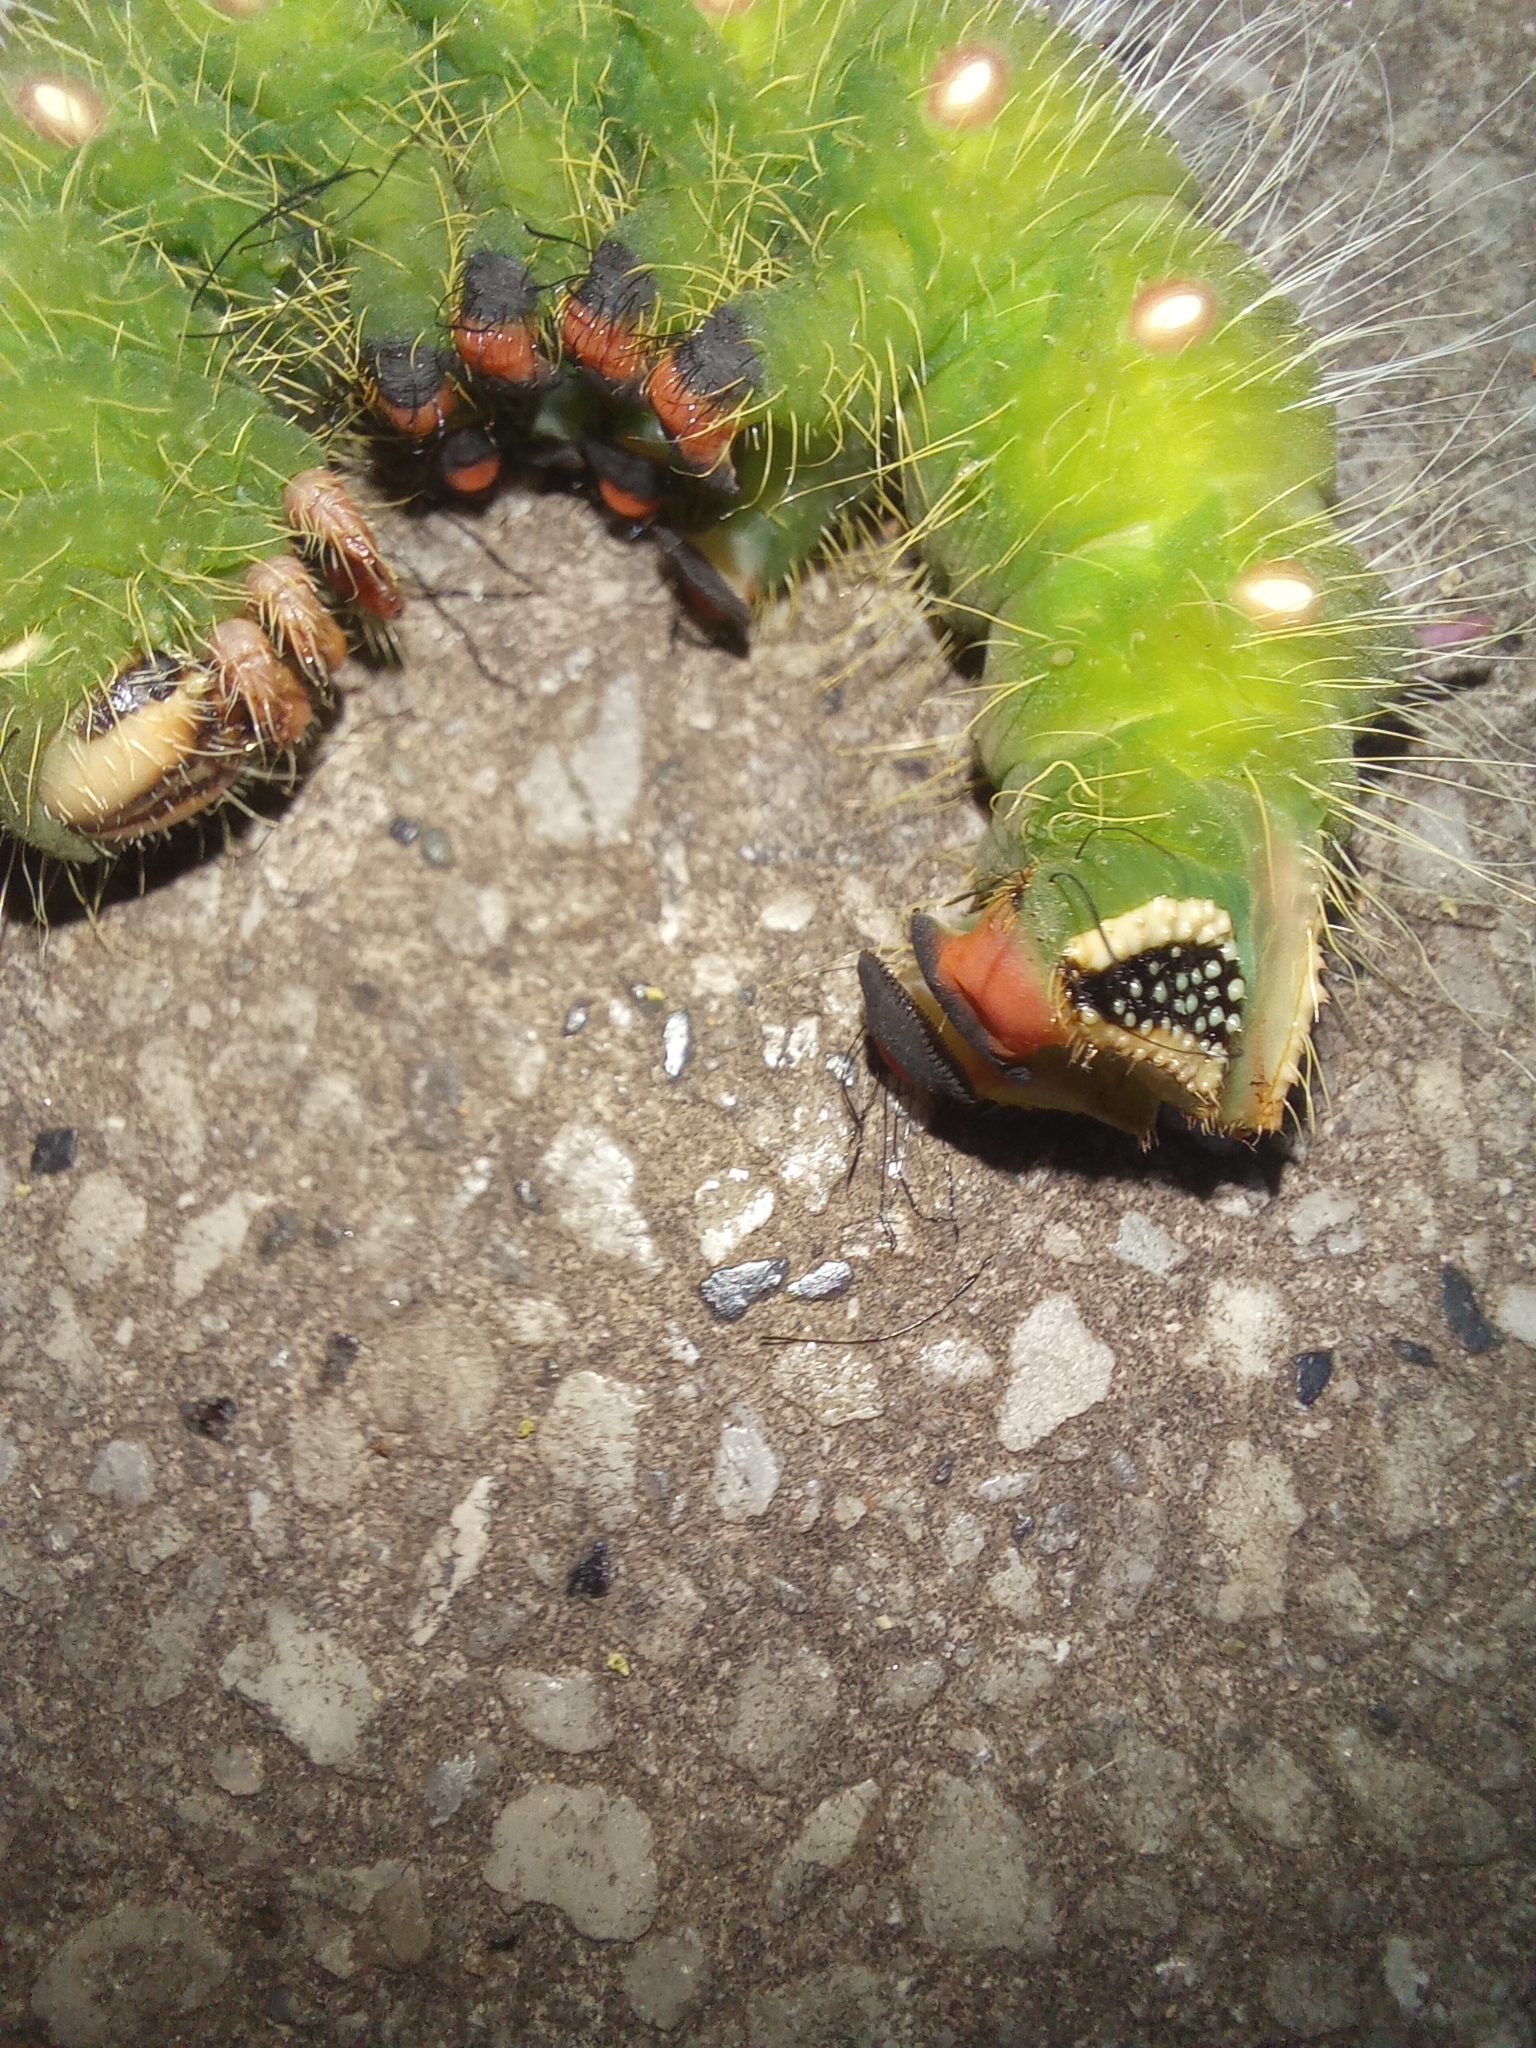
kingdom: Animalia
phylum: Arthropoda
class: Insecta
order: Lepidoptera
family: Saturniidae
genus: Eacles
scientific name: Eacles imperialis
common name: Imperial moth
